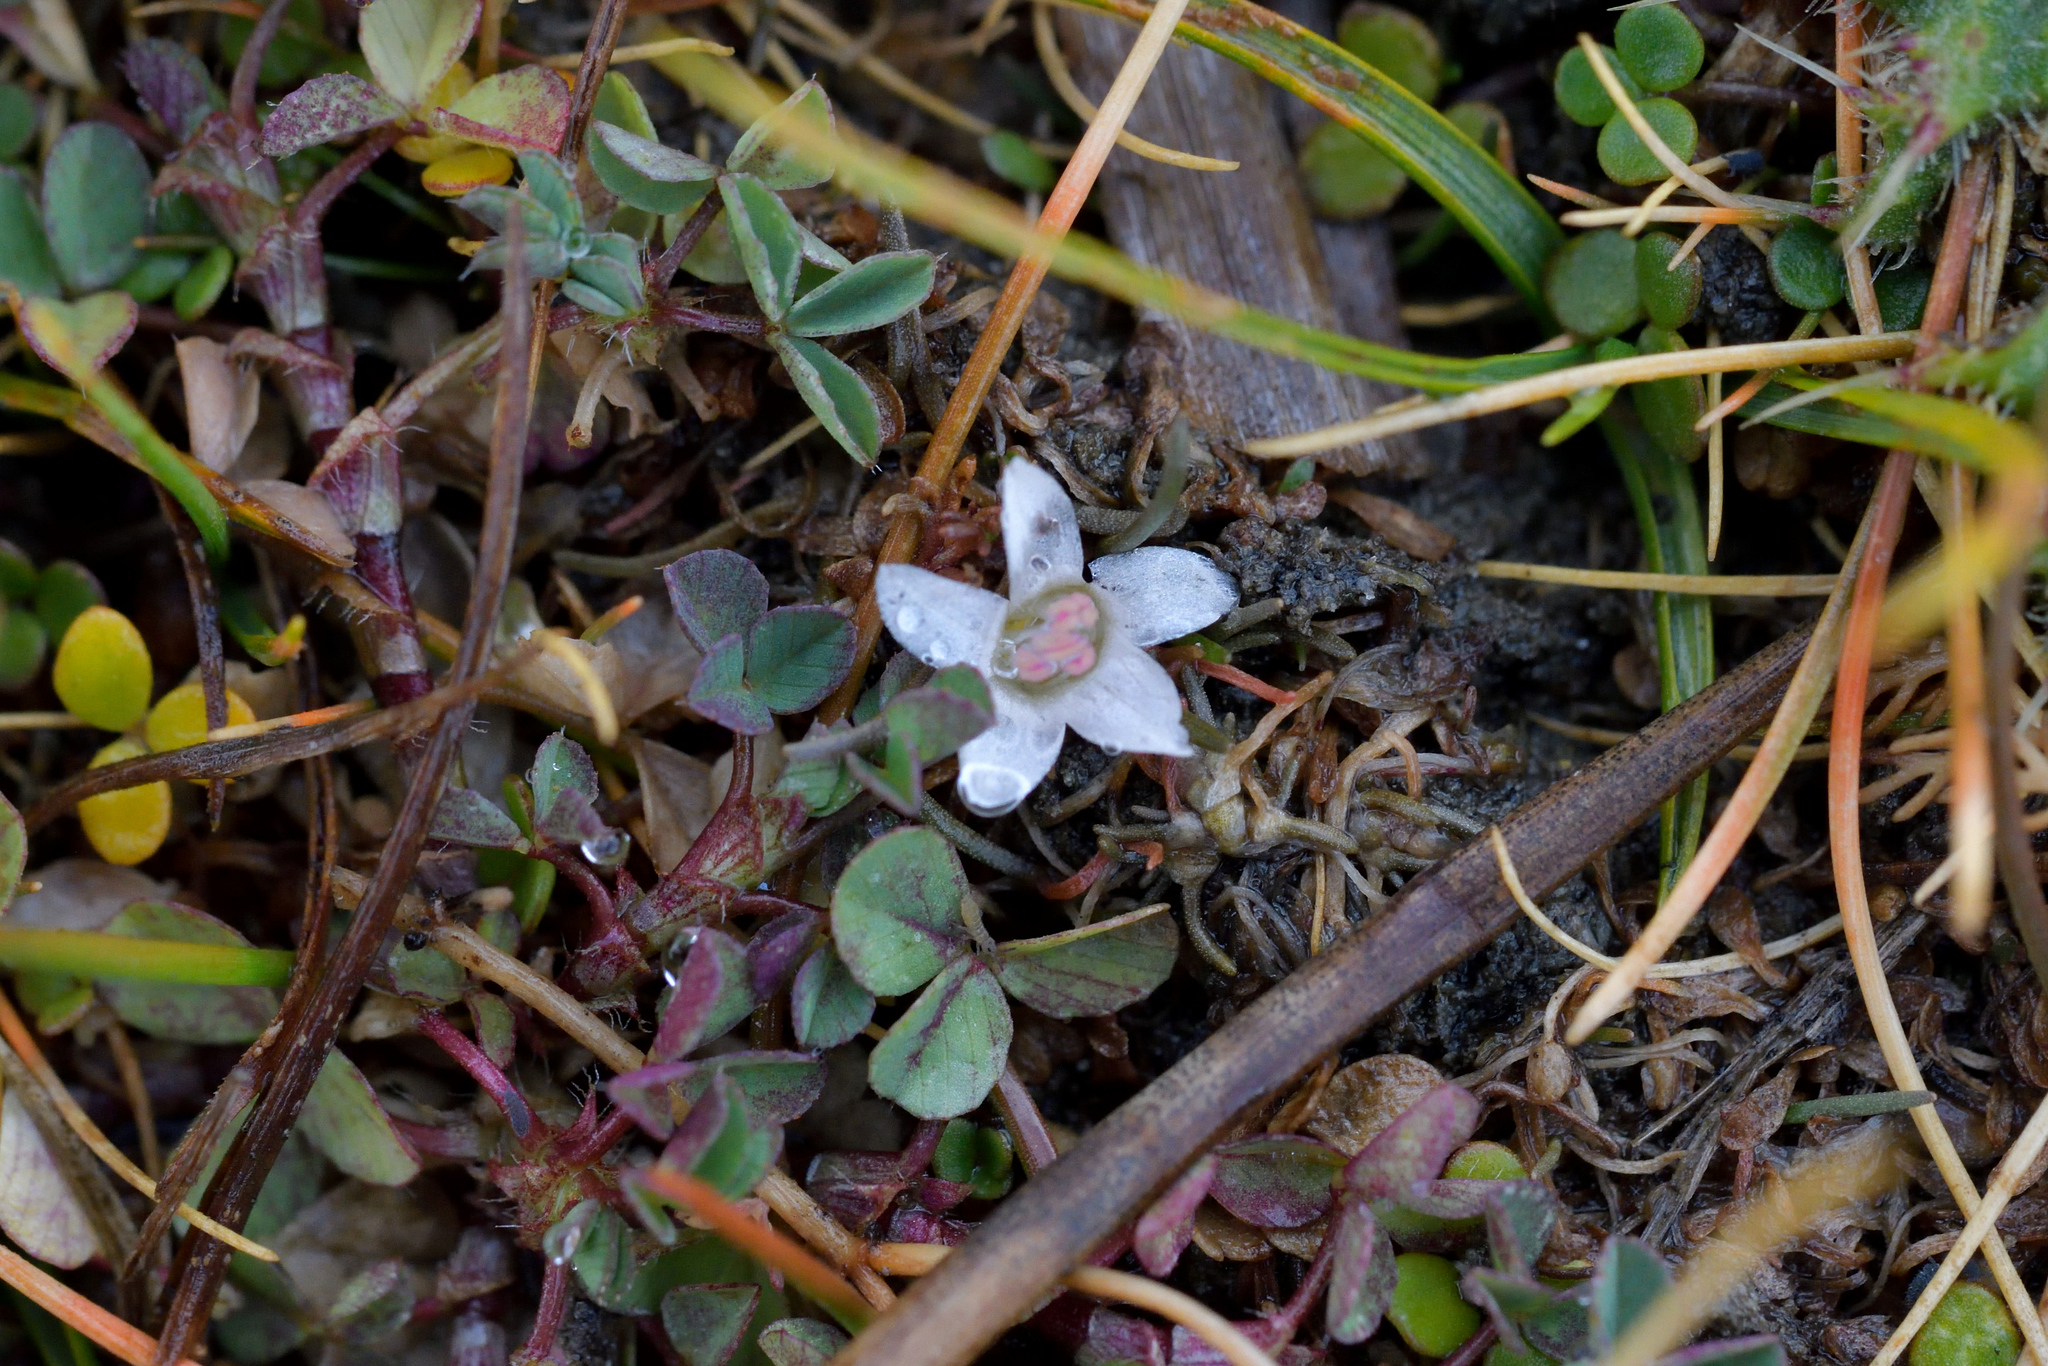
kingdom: Plantae
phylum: Tracheophyta
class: Magnoliopsida
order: Caryophyllales
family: Montiaceae
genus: Montia
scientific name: Montia angustifolia
